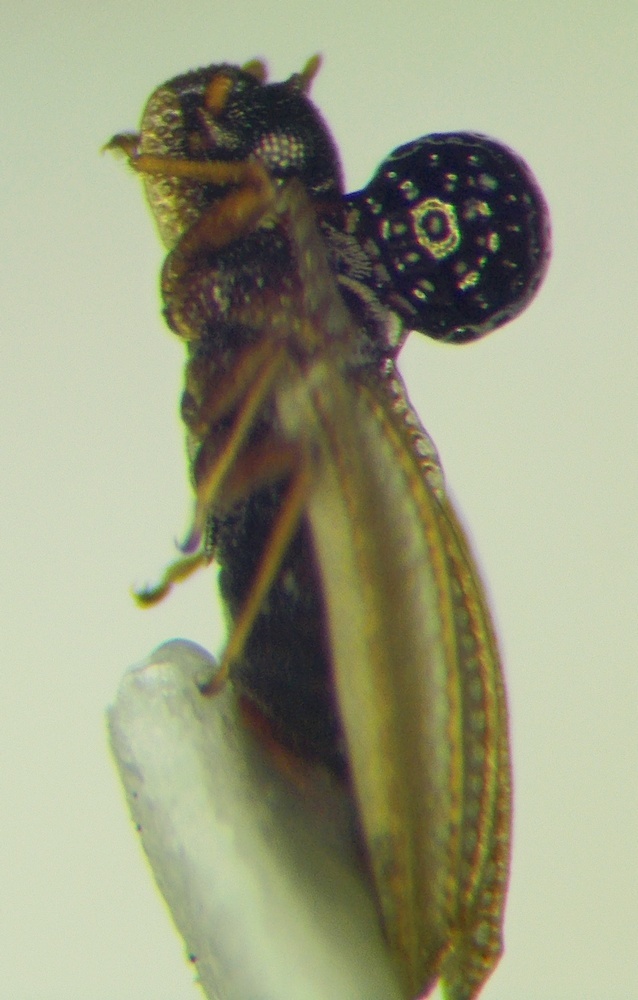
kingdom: Animalia
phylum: Arthropoda
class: Insecta
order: Hemiptera
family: Tingidae
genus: Sphaerista
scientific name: Sphaerista emeljanovi
